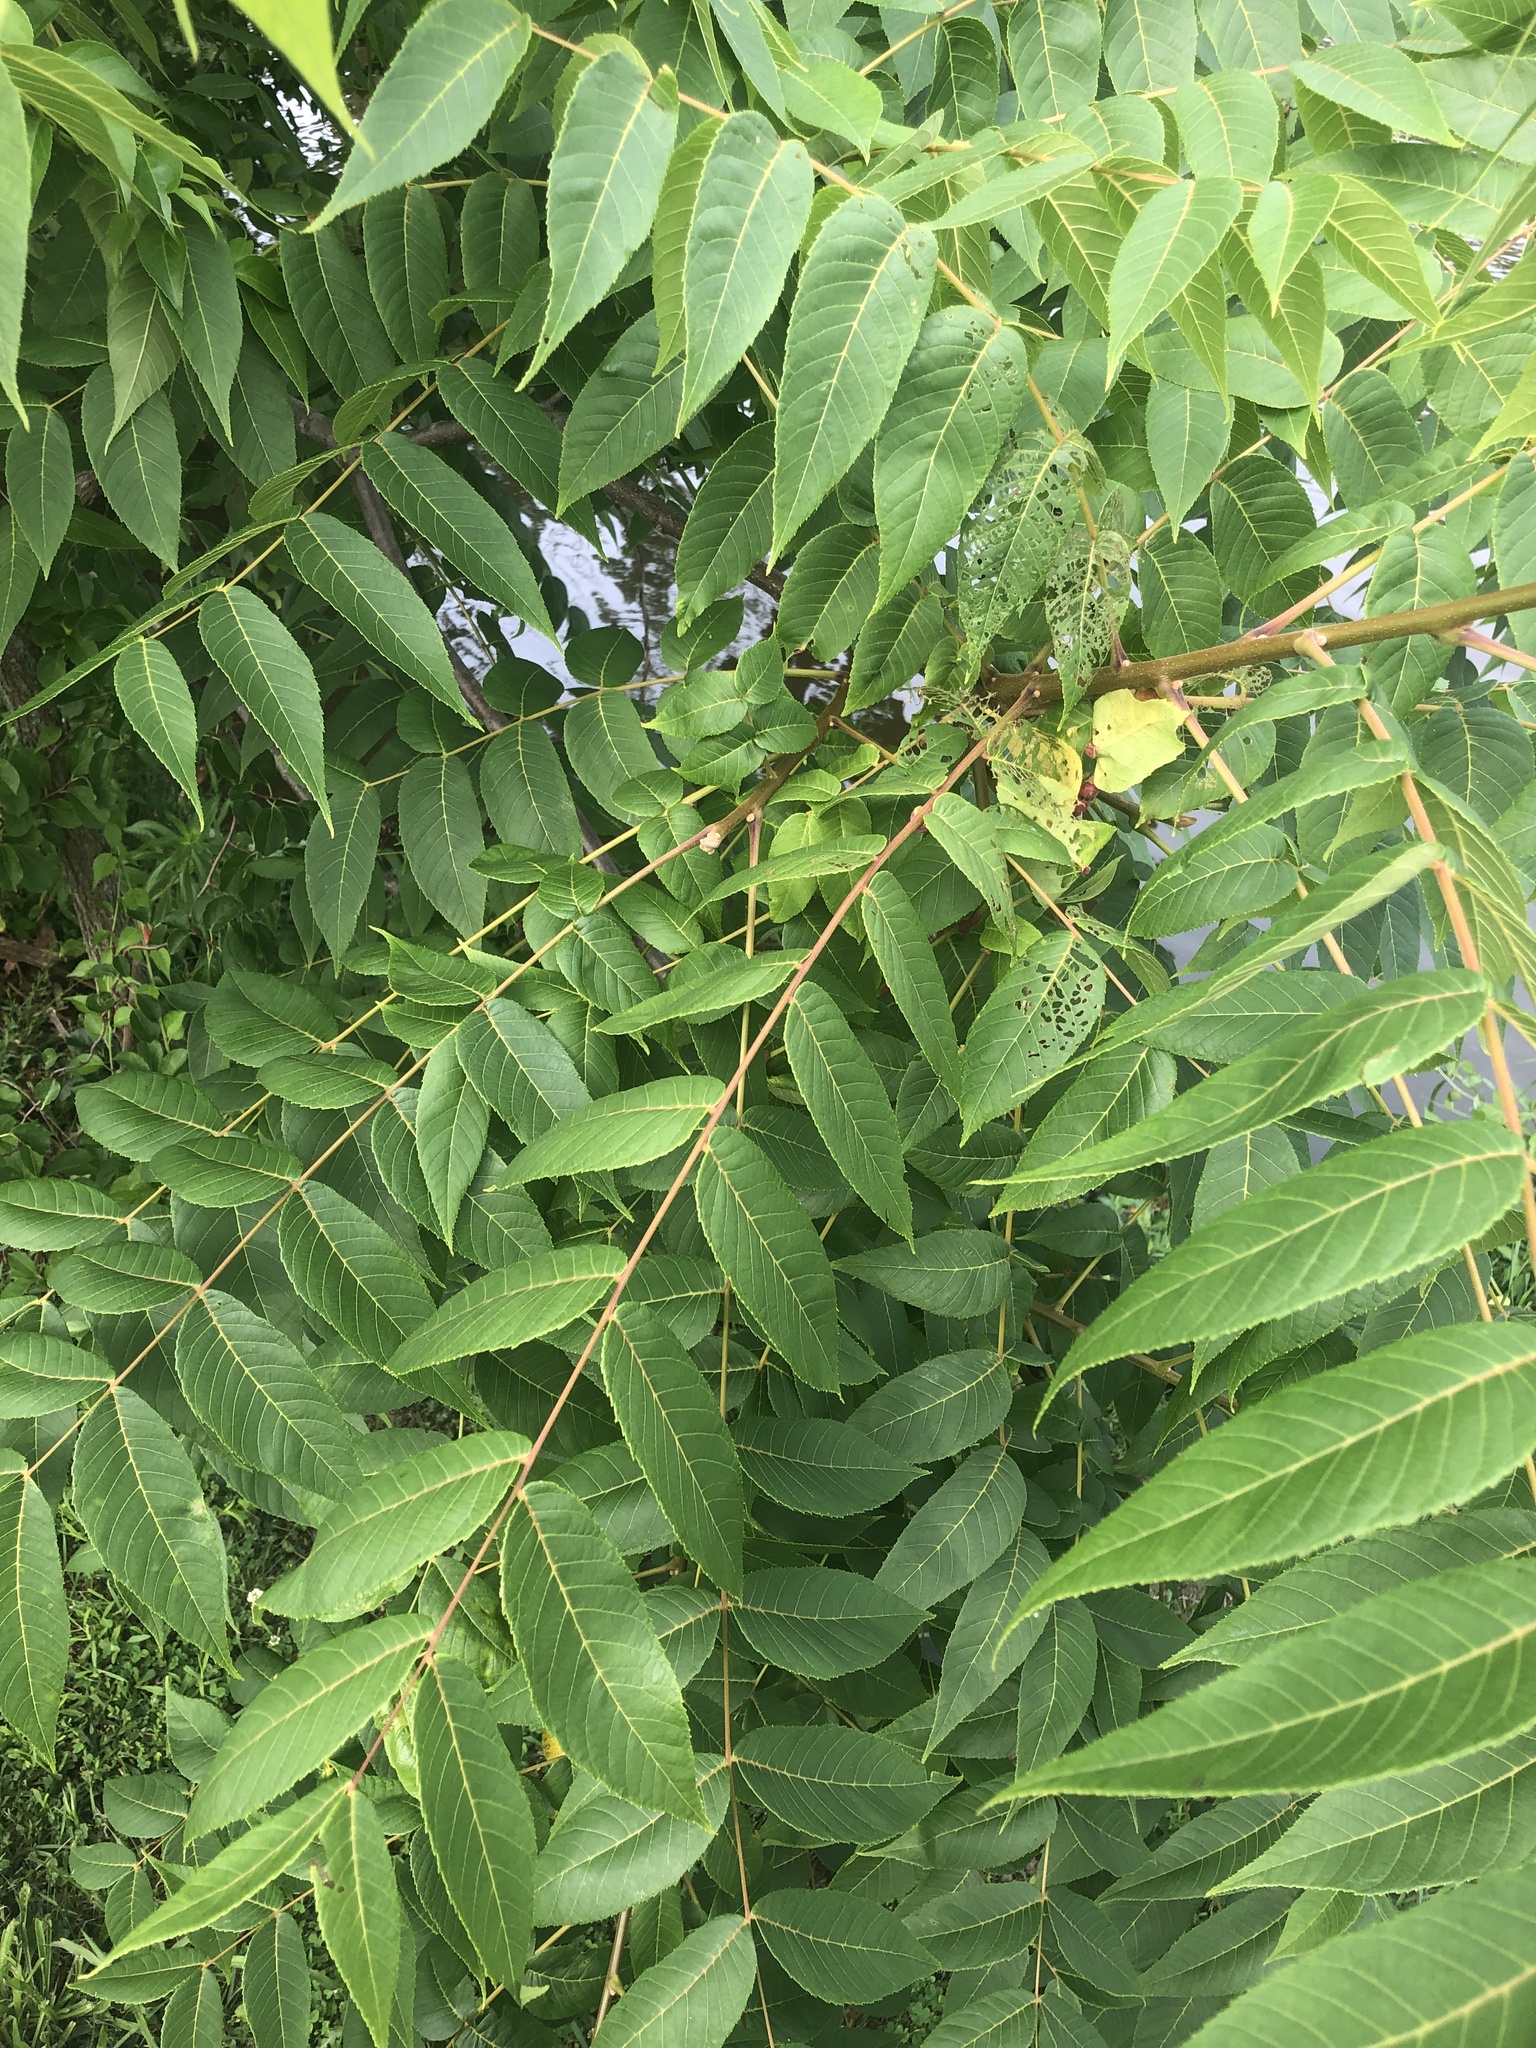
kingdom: Plantae
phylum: Tracheophyta
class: Magnoliopsida
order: Fagales
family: Juglandaceae
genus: Juglans
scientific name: Juglans nigra
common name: Black walnut
